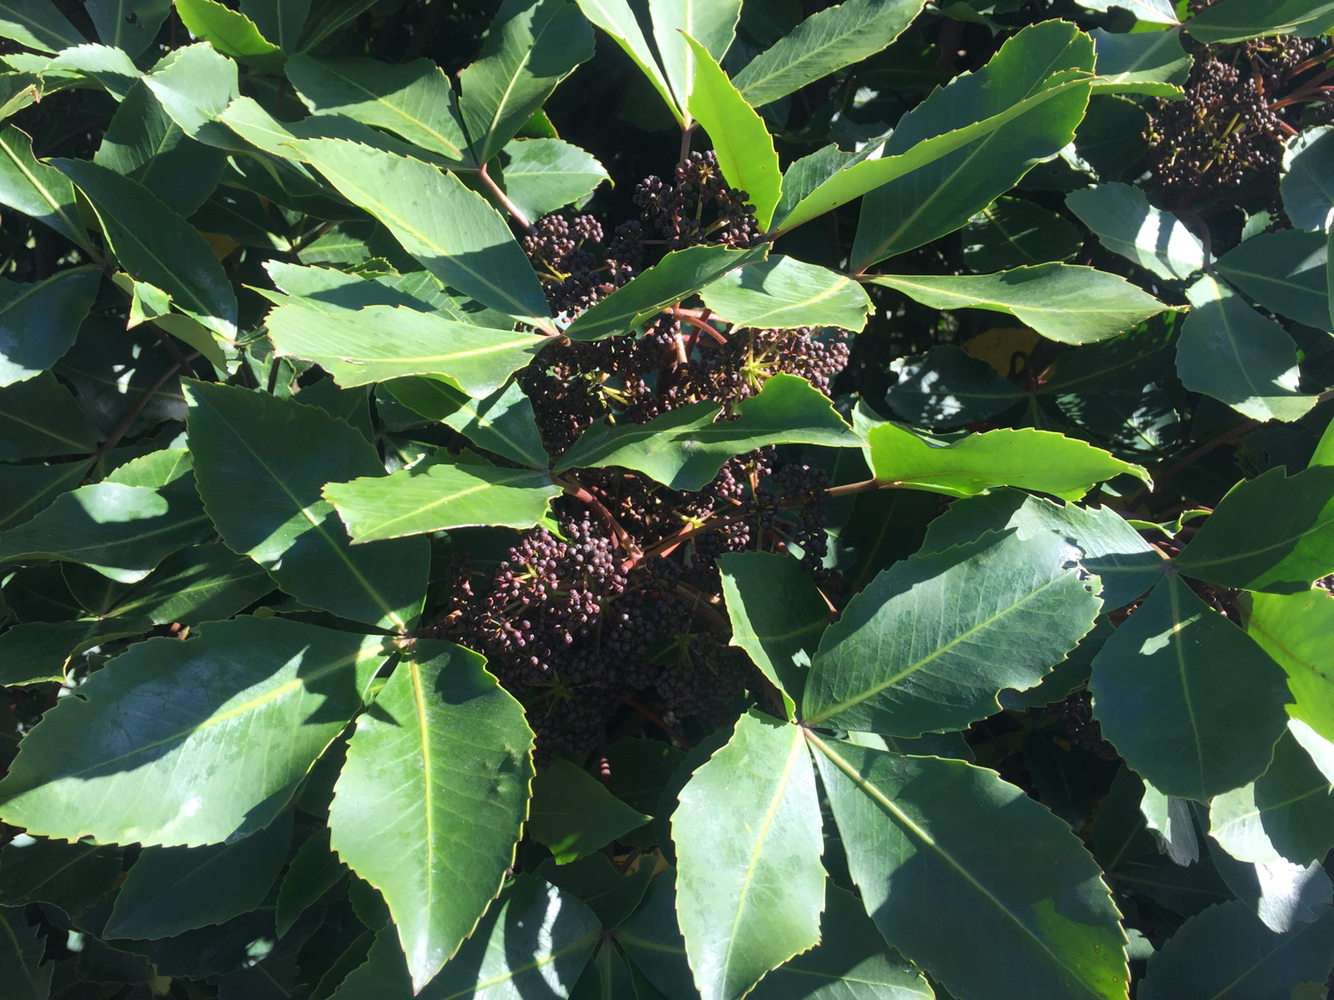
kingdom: Plantae
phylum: Tracheophyta
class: Magnoliopsida
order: Apiales
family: Araliaceae
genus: Neopanax
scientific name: Neopanax colensoi
